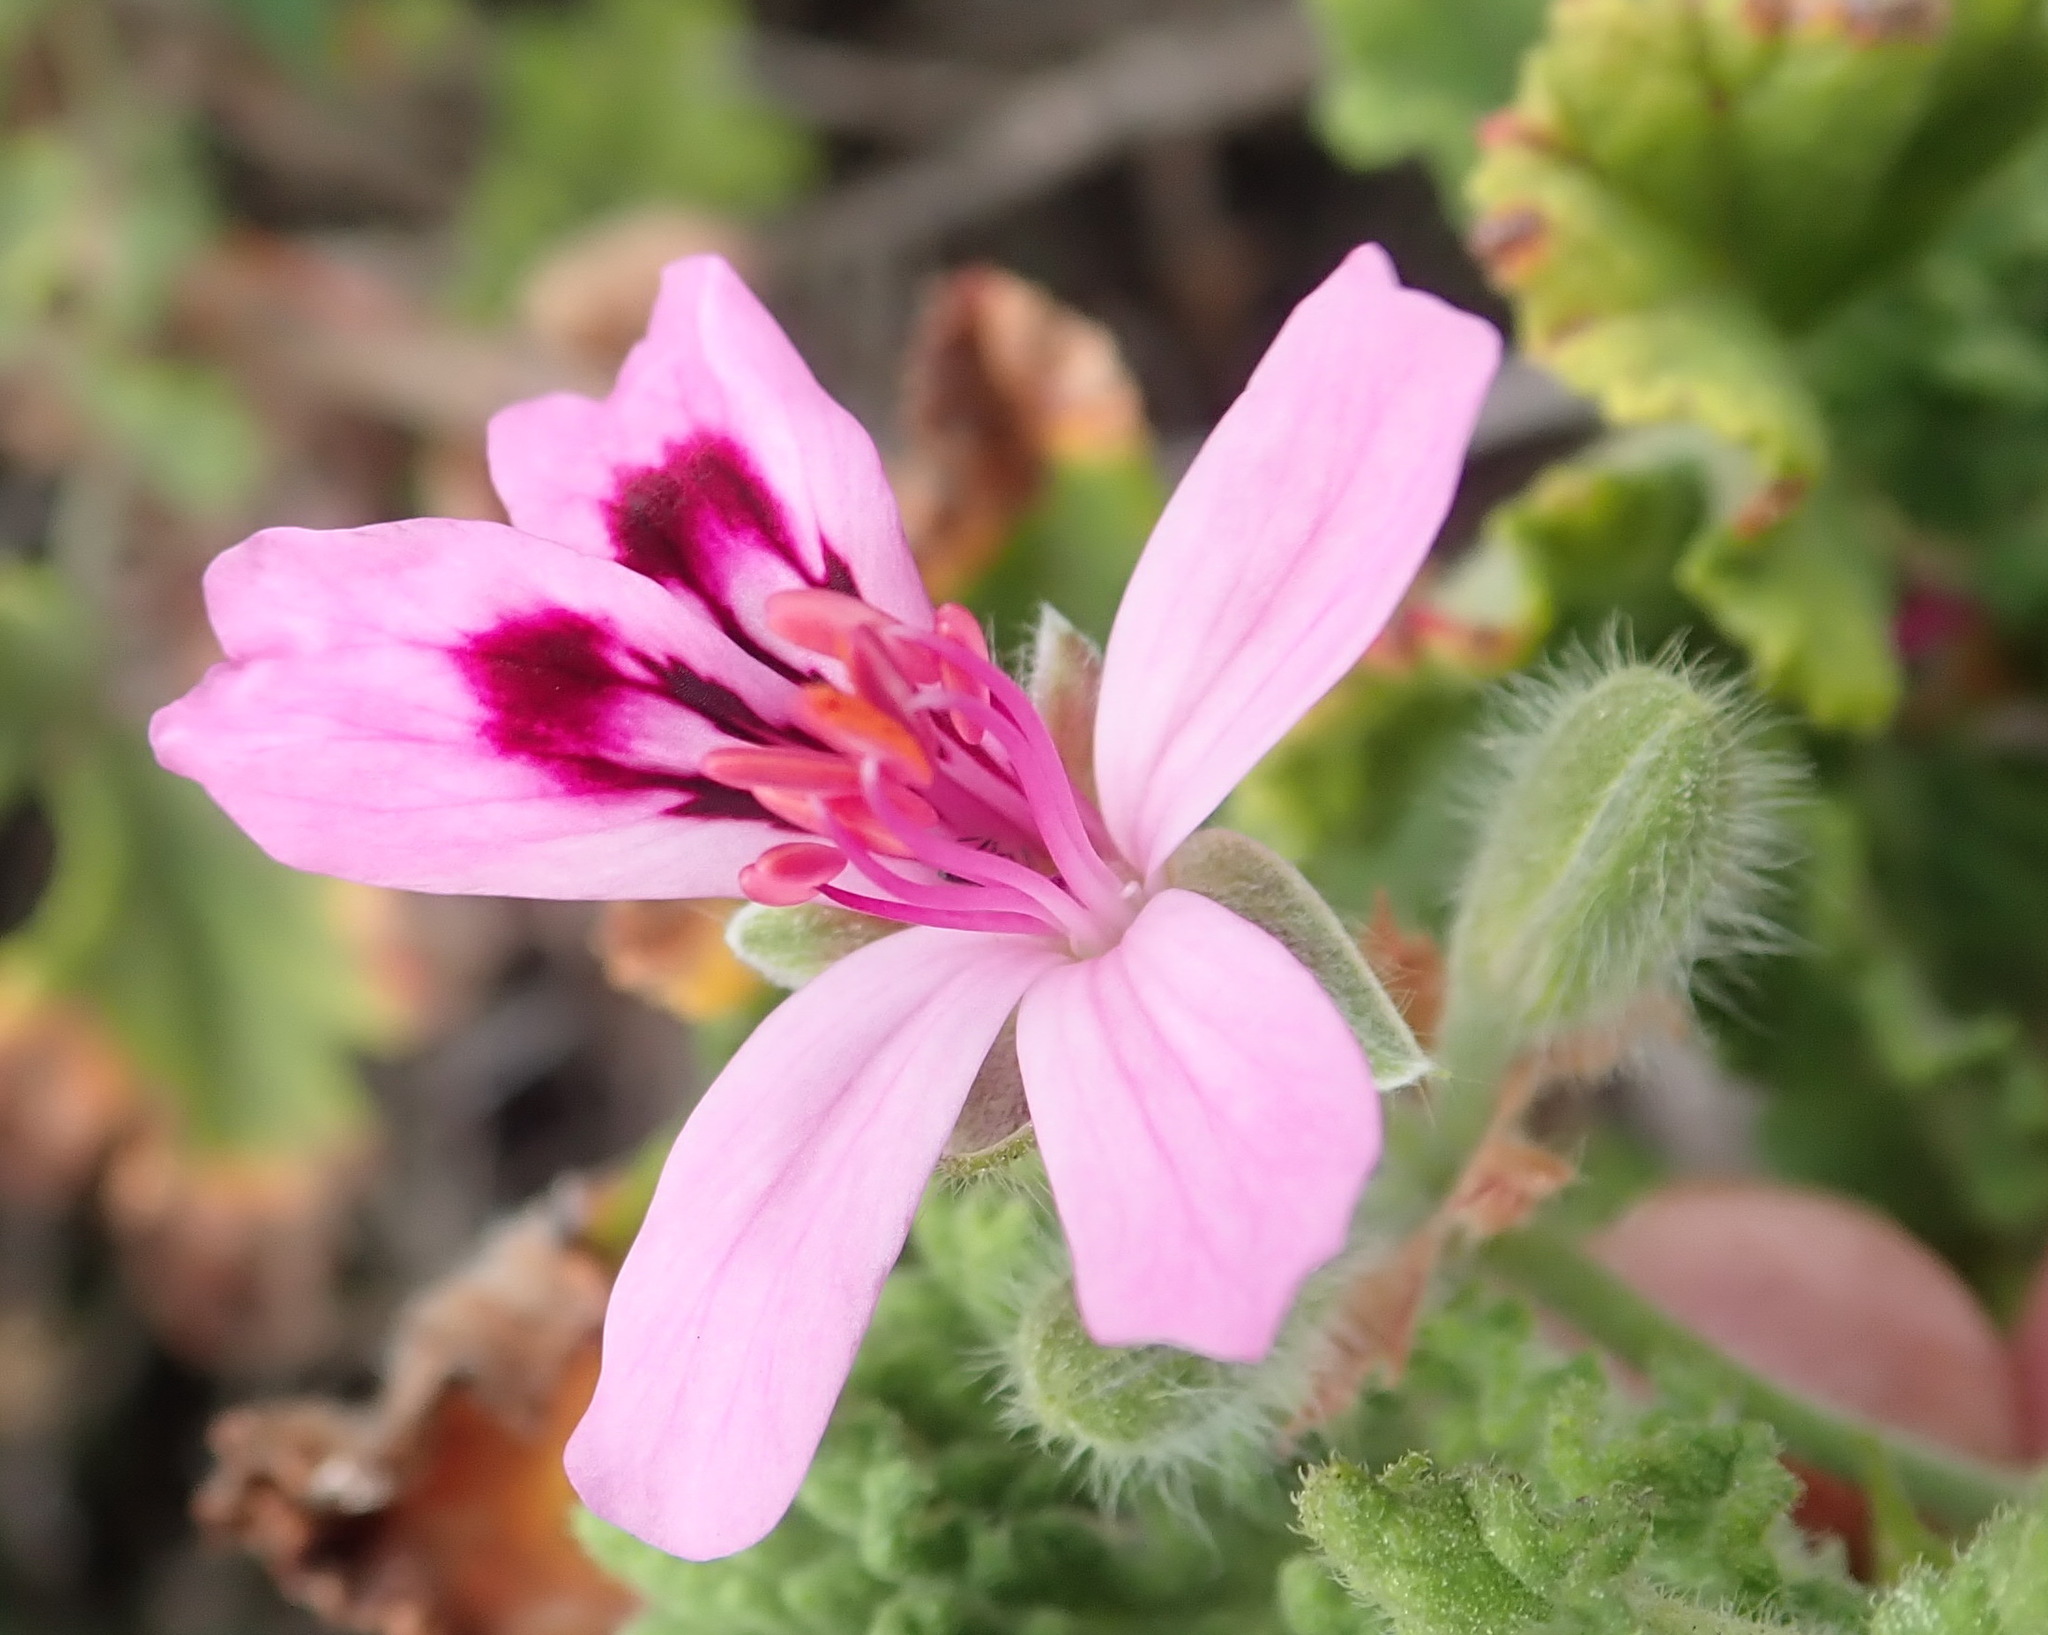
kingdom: Plantae
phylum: Tracheophyta
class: Magnoliopsida
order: Geraniales
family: Geraniaceae
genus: Pelargonium
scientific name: Pelargonium panduriforme
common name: Oakleaf garden geranium
